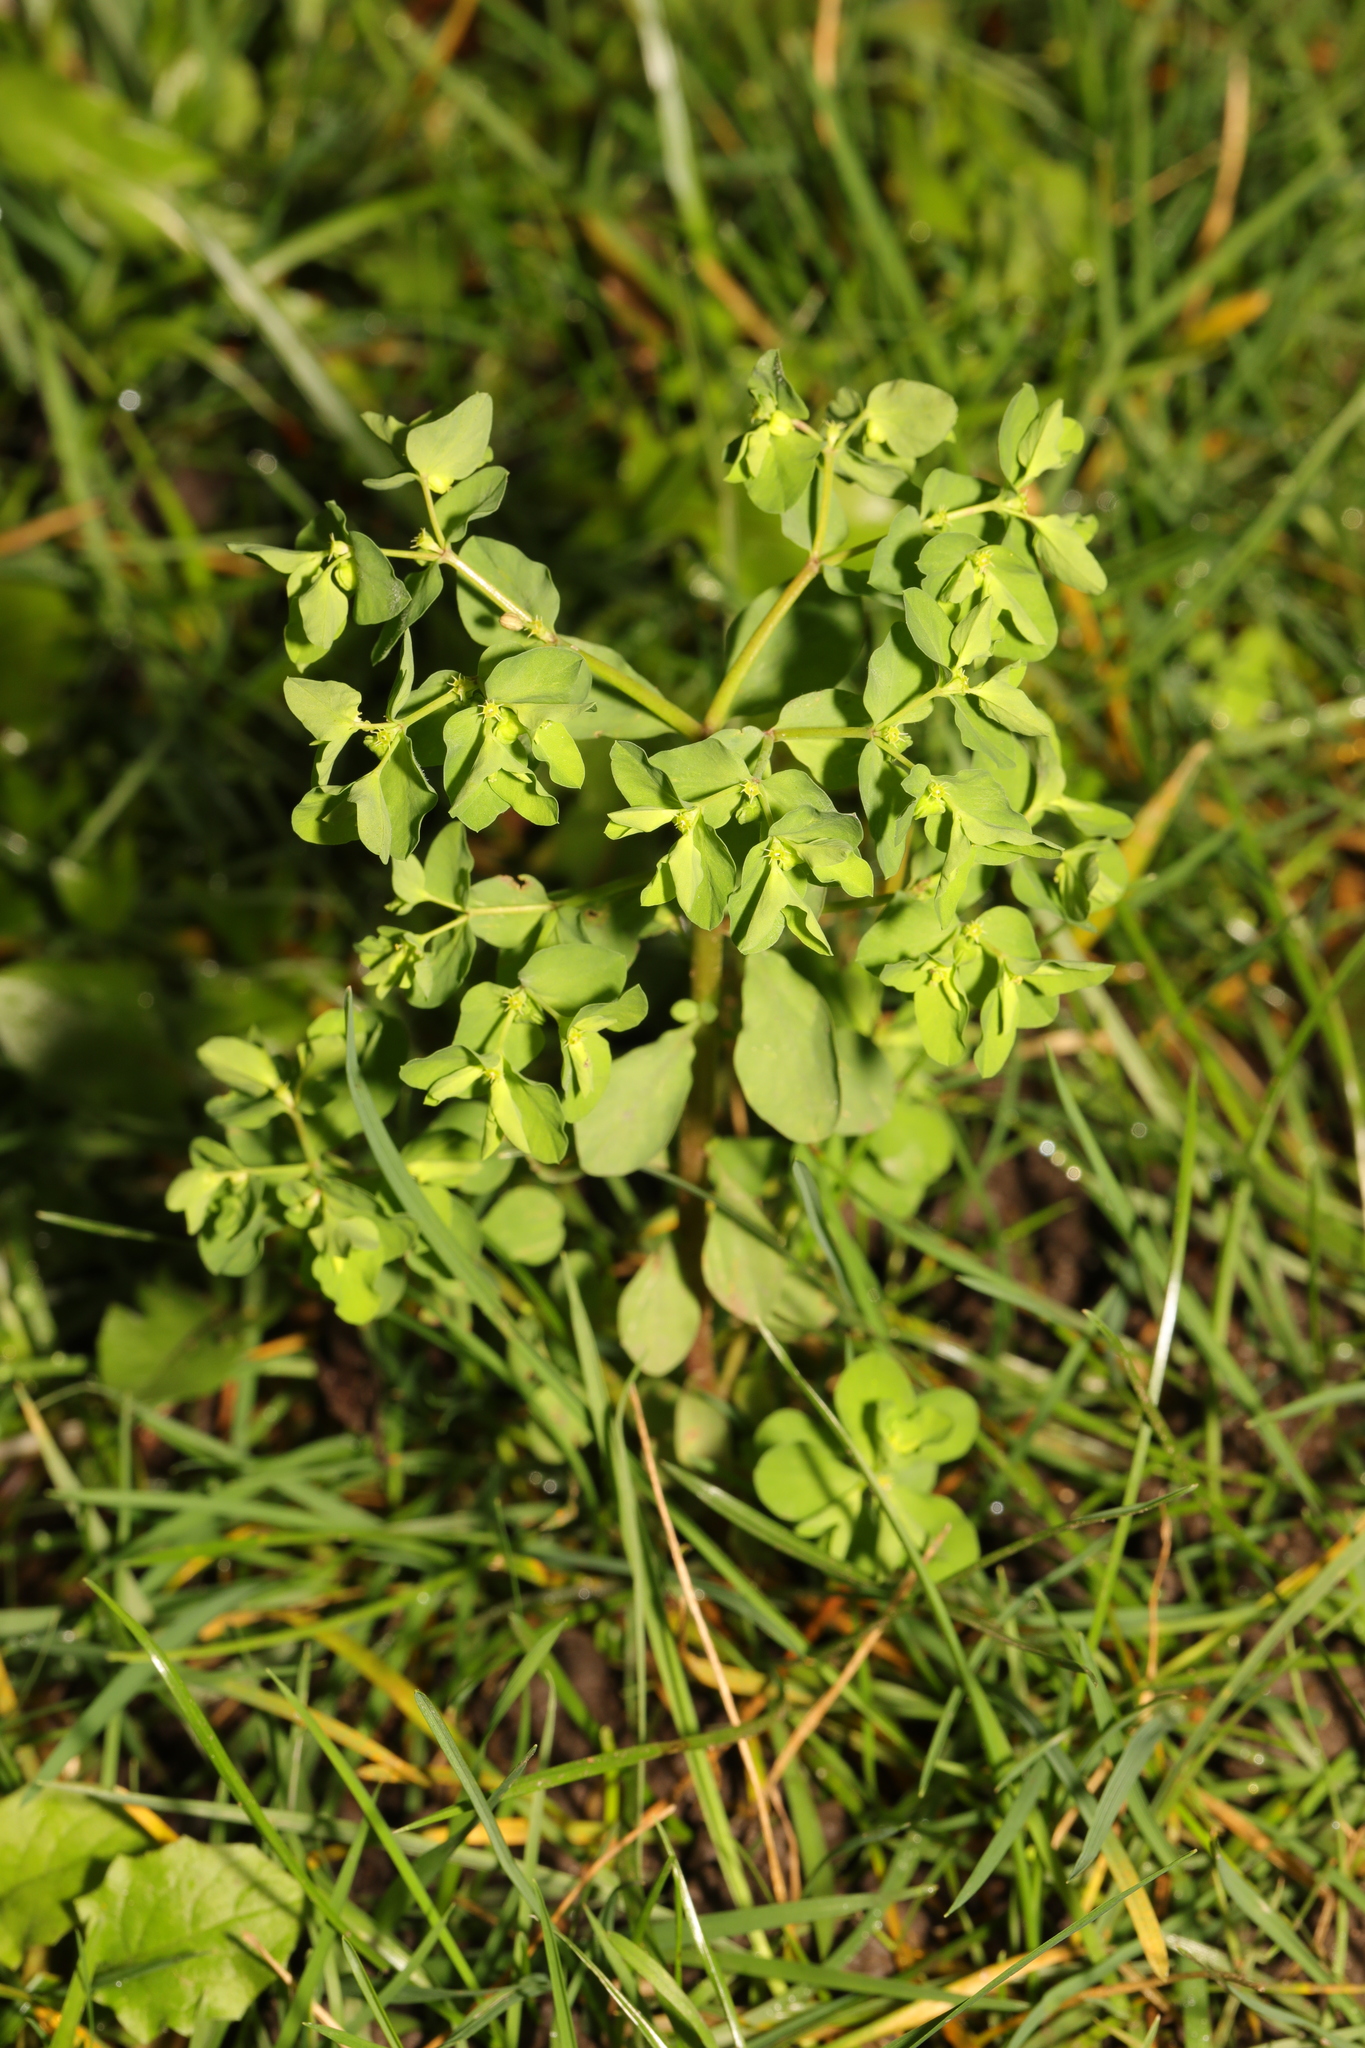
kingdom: Plantae
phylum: Tracheophyta
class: Magnoliopsida
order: Malpighiales
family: Euphorbiaceae
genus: Euphorbia
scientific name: Euphorbia peplus
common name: Petty spurge
